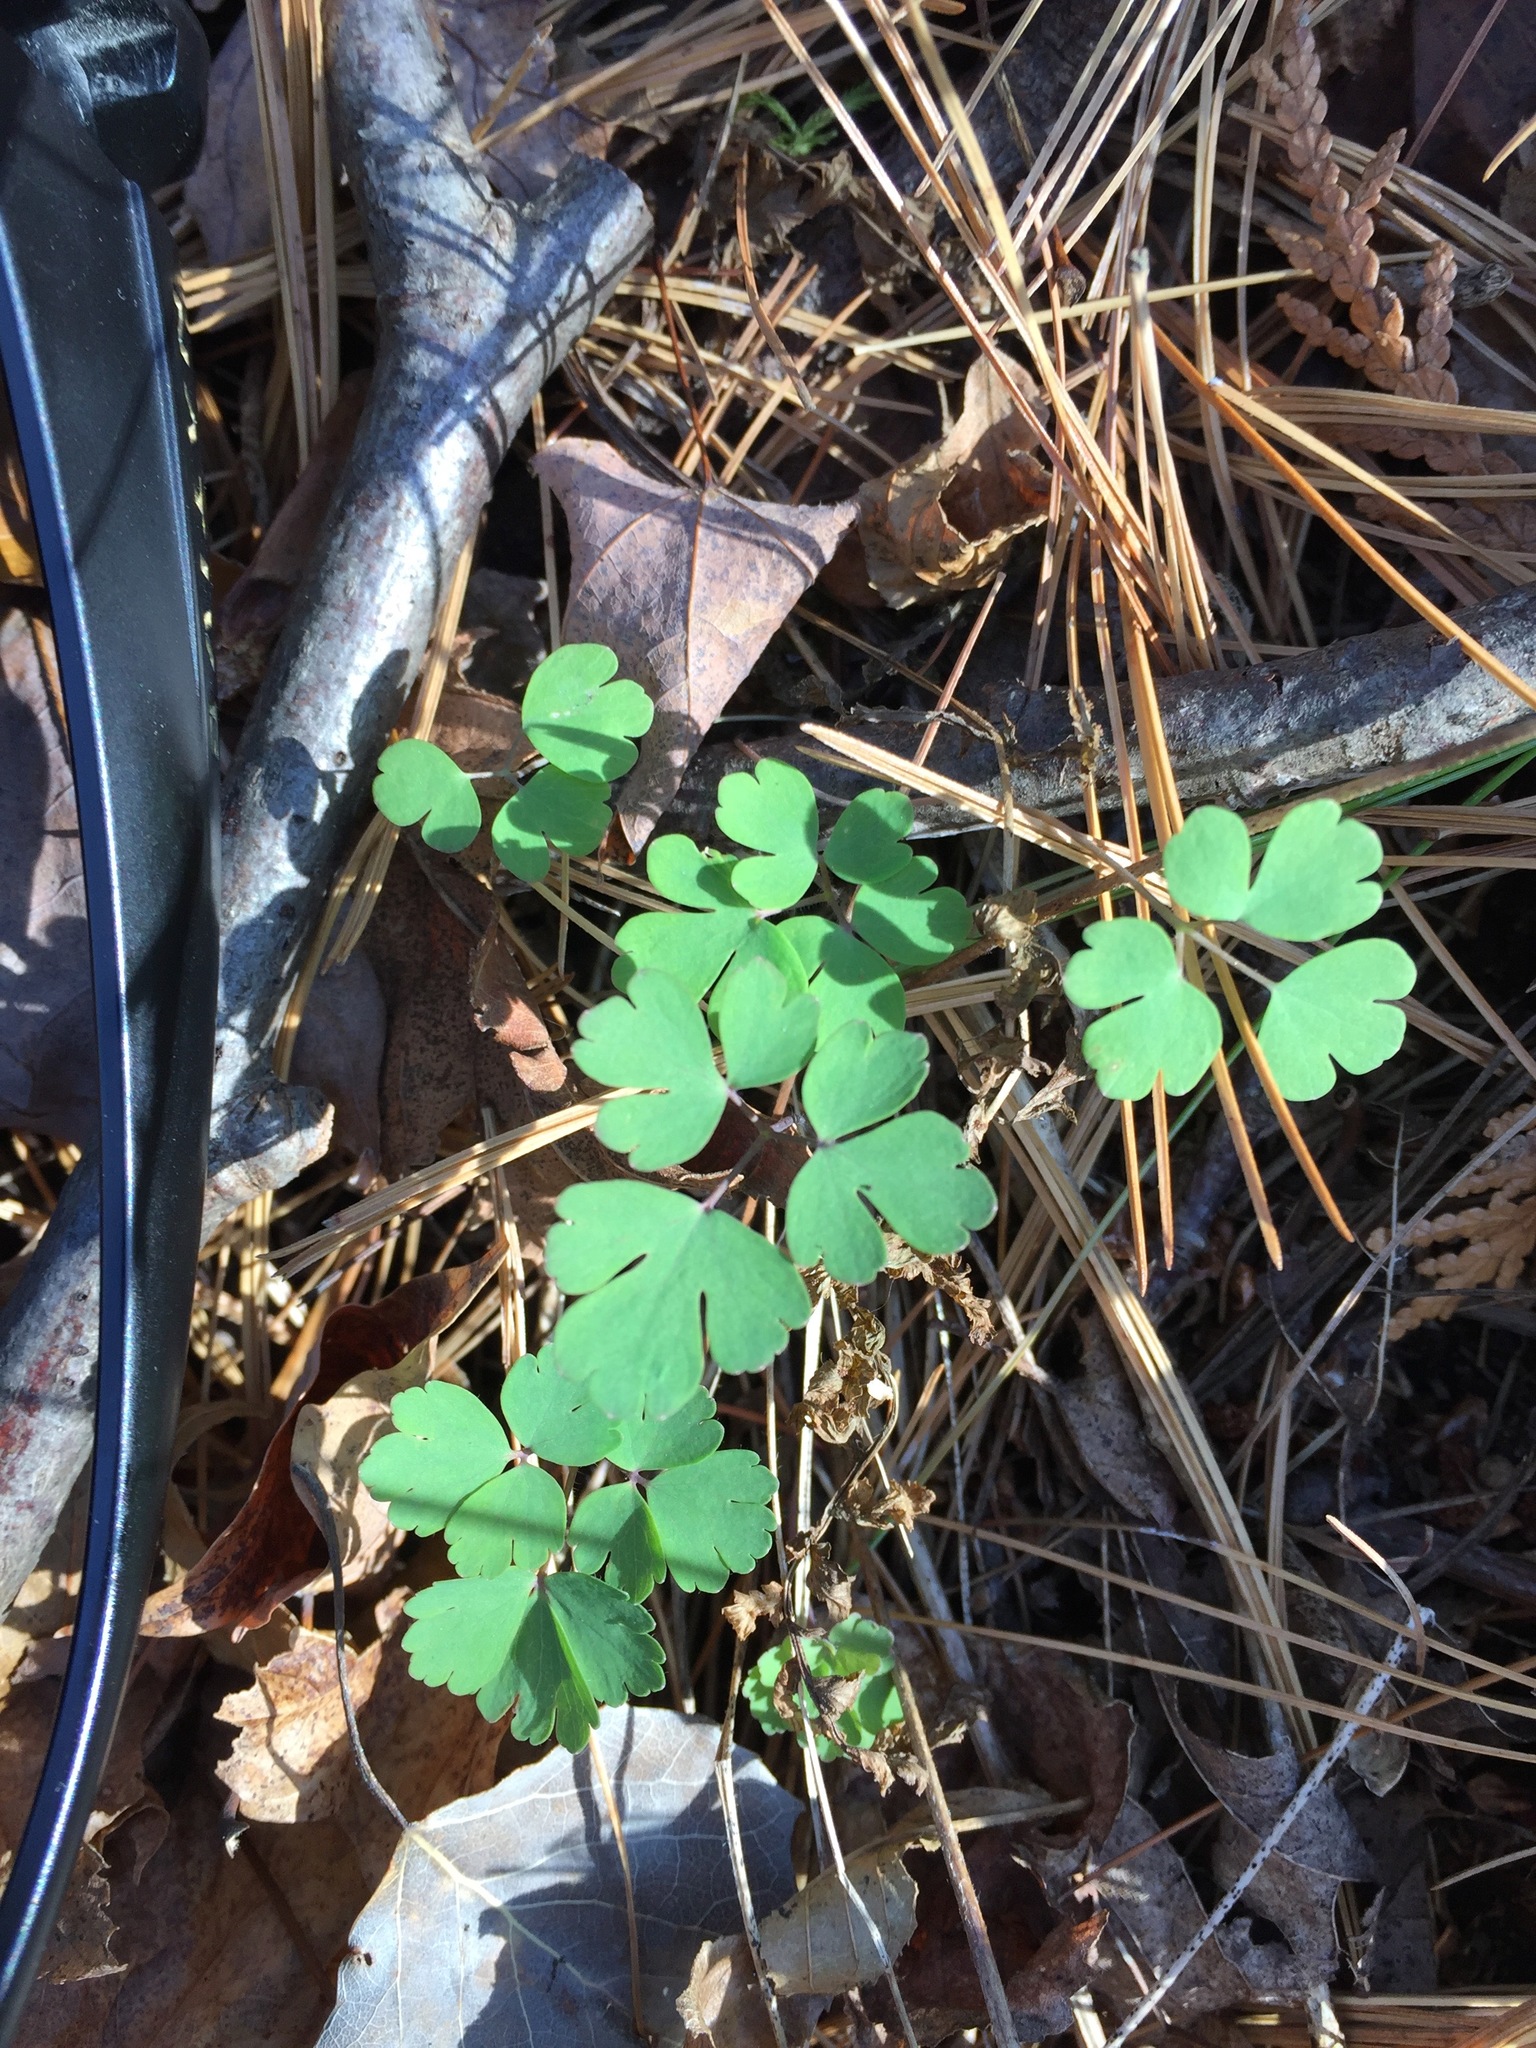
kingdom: Plantae
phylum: Tracheophyta
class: Magnoliopsida
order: Ranunculales
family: Ranunculaceae
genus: Aquilegia
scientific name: Aquilegia canadensis
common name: American columbine
